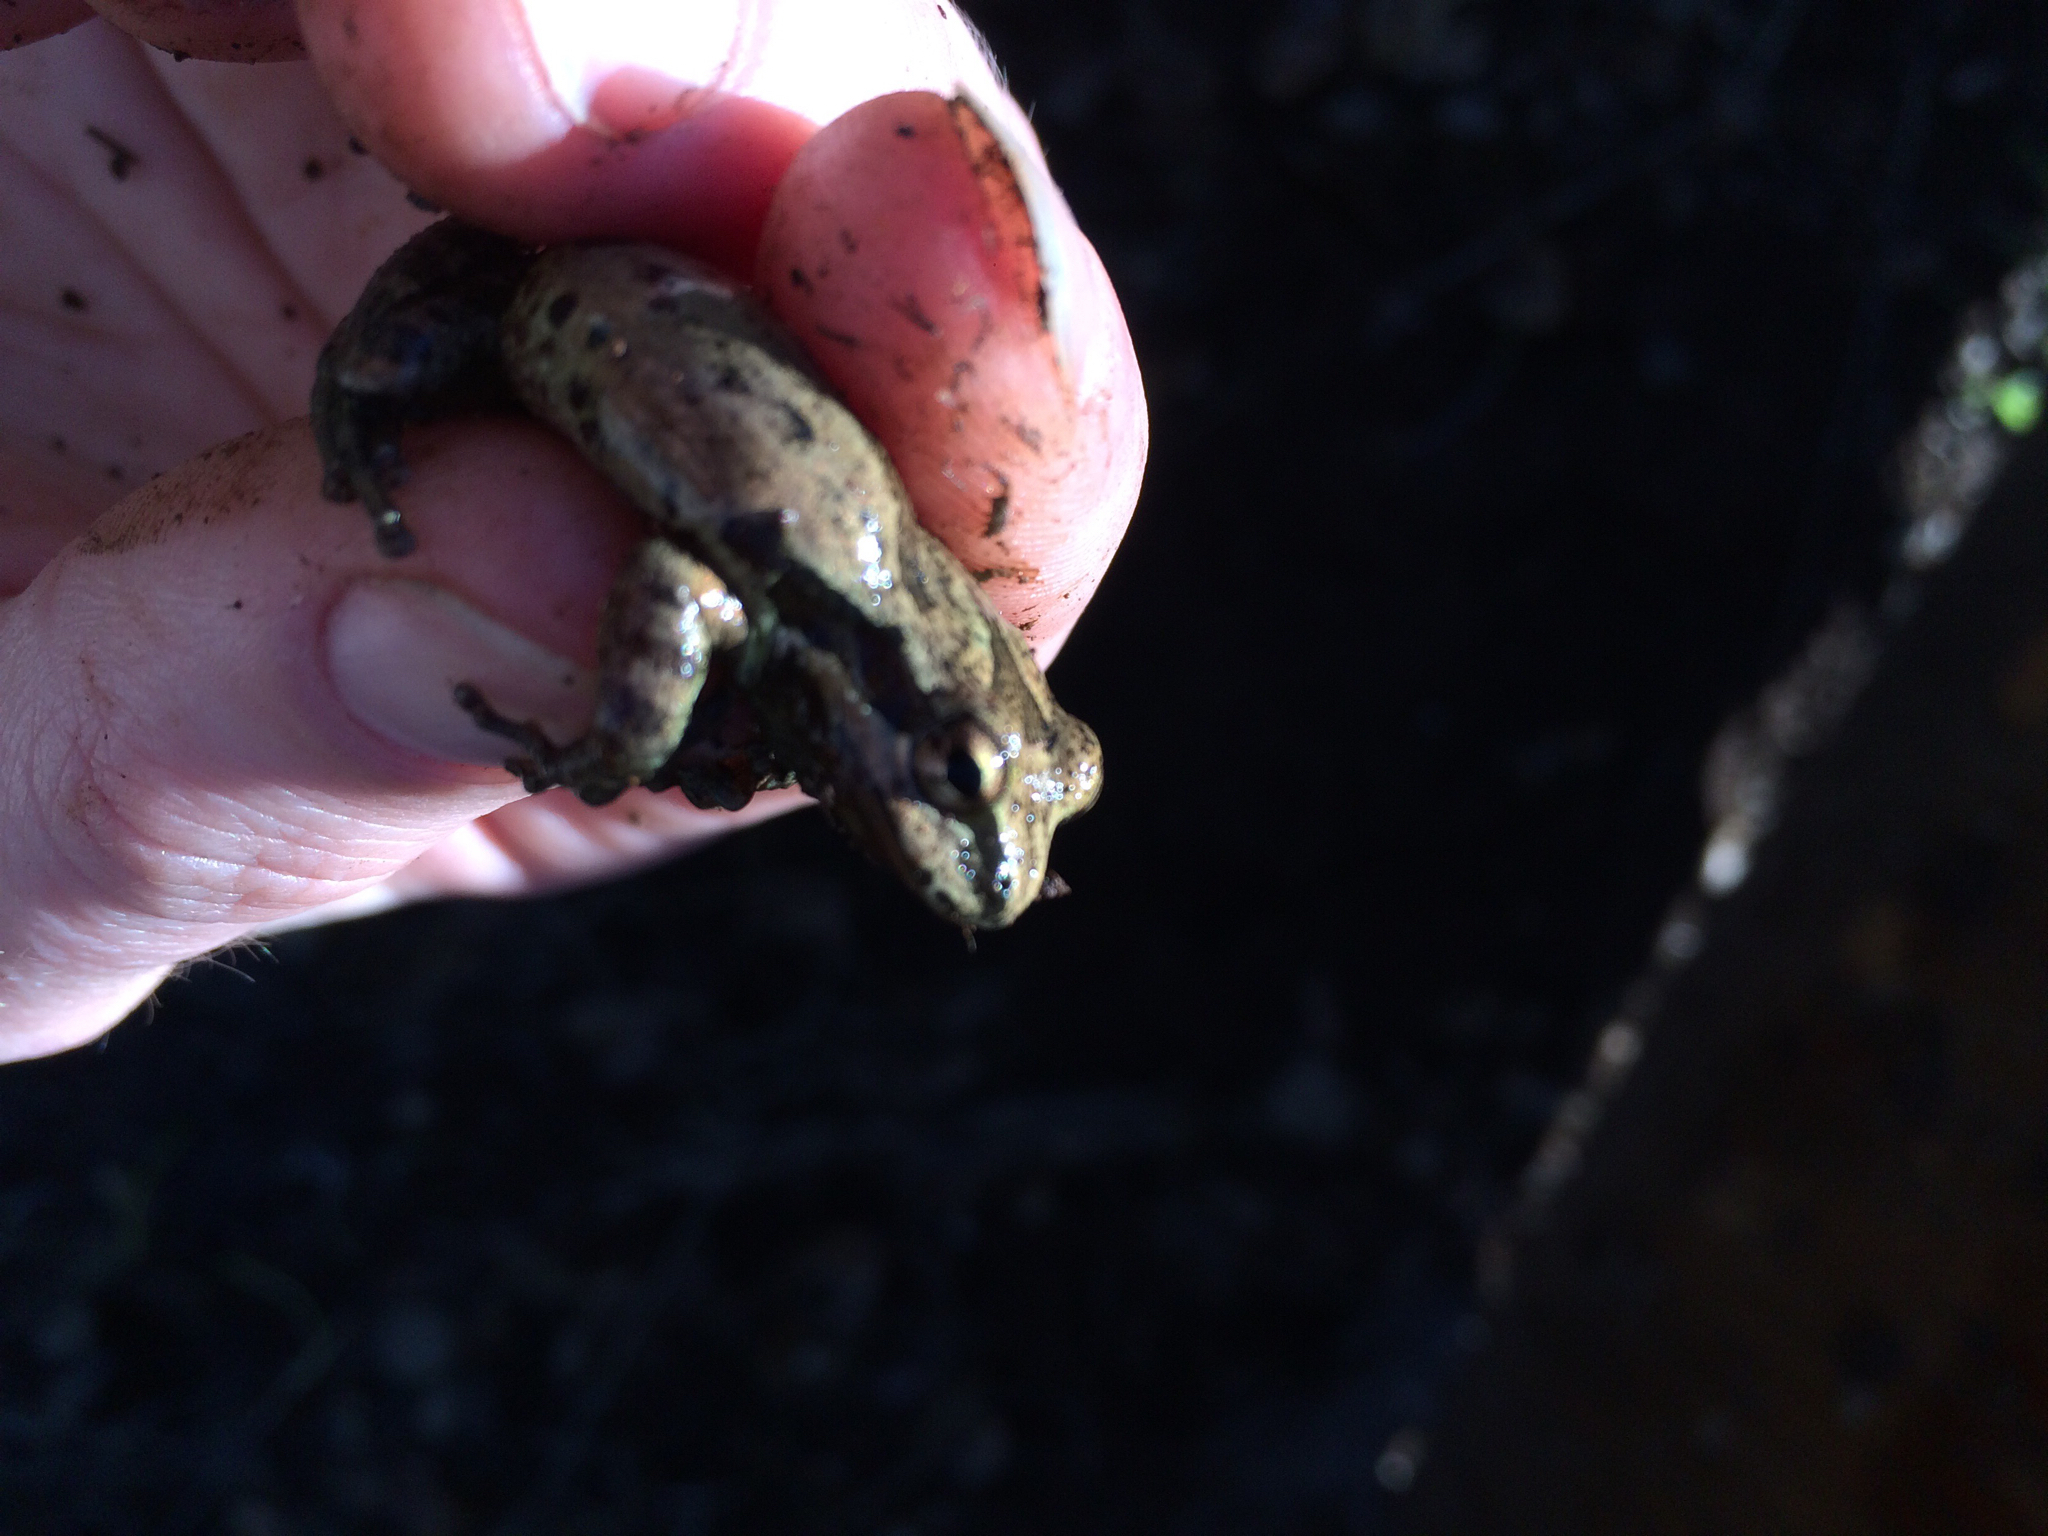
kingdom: Animalia
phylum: Chordata
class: Amphibia
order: Anura
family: Hylidae
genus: Pseudacris
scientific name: Pseudacris regilla
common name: Pacific chorus frog
